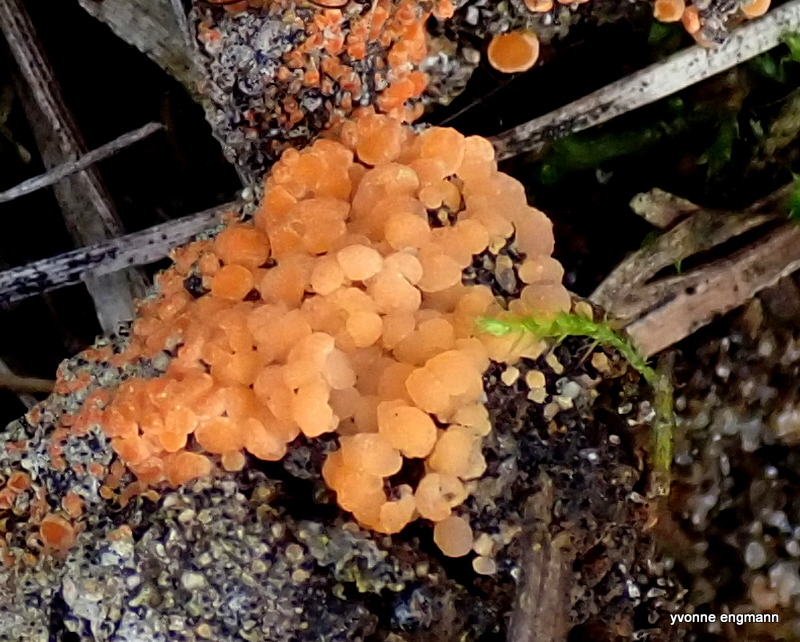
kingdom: Fungi
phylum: Ascomycota
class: Pezizomycetes
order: Pezizales
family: Pyronemataceae
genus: Pyronema
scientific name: Pyronema omphalodes
